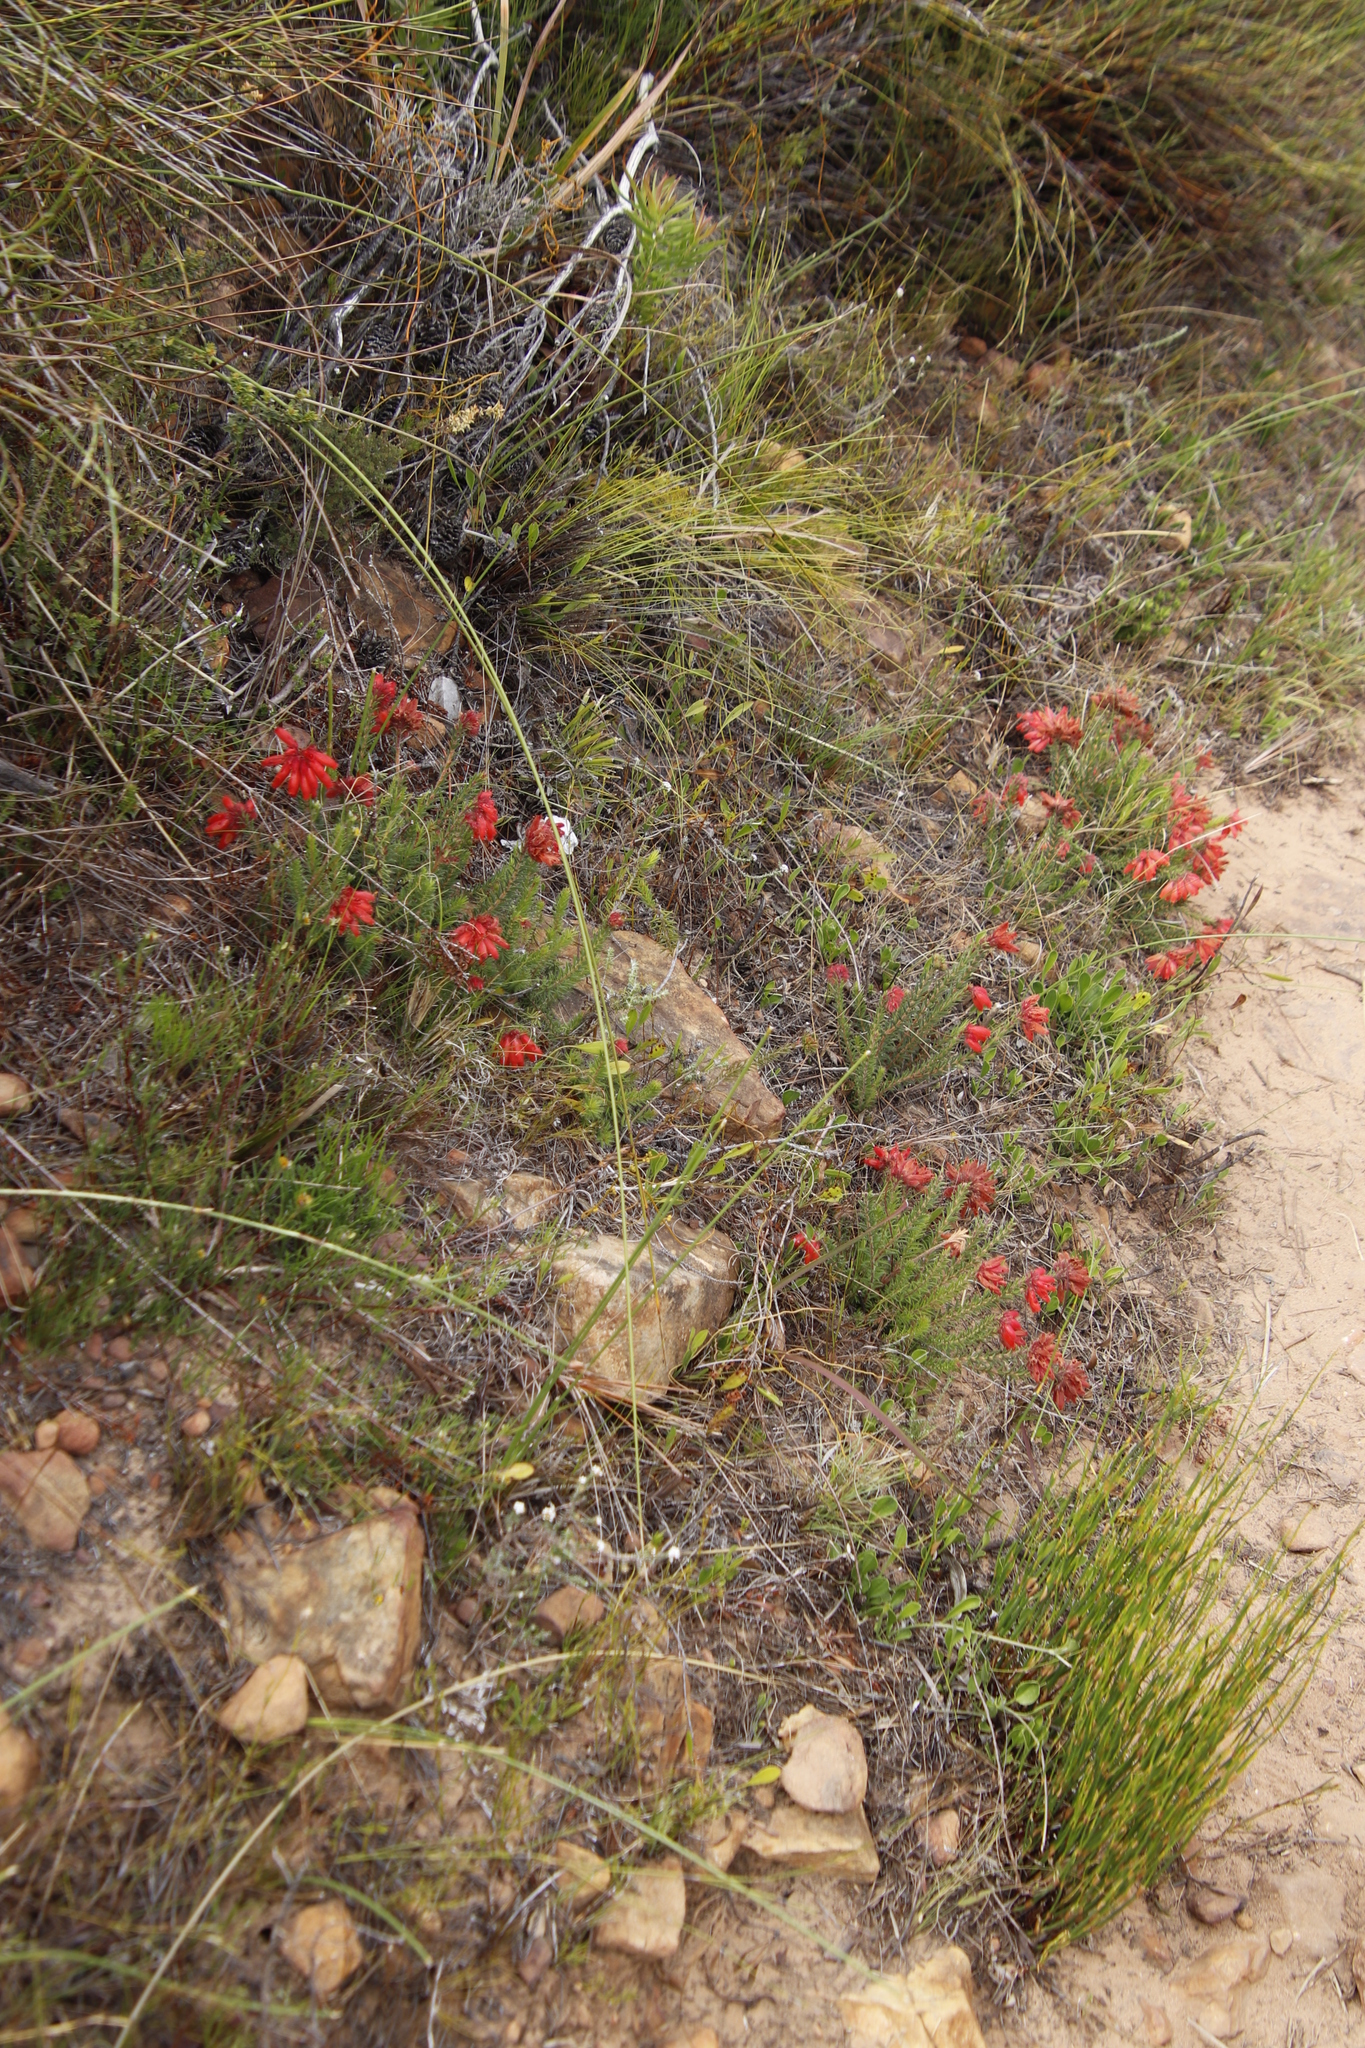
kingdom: Plantae
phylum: Tracheophyta
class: Magnoliopsida
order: Ericales
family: Ericaceae
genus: Erica
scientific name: Erica cerinthoides
